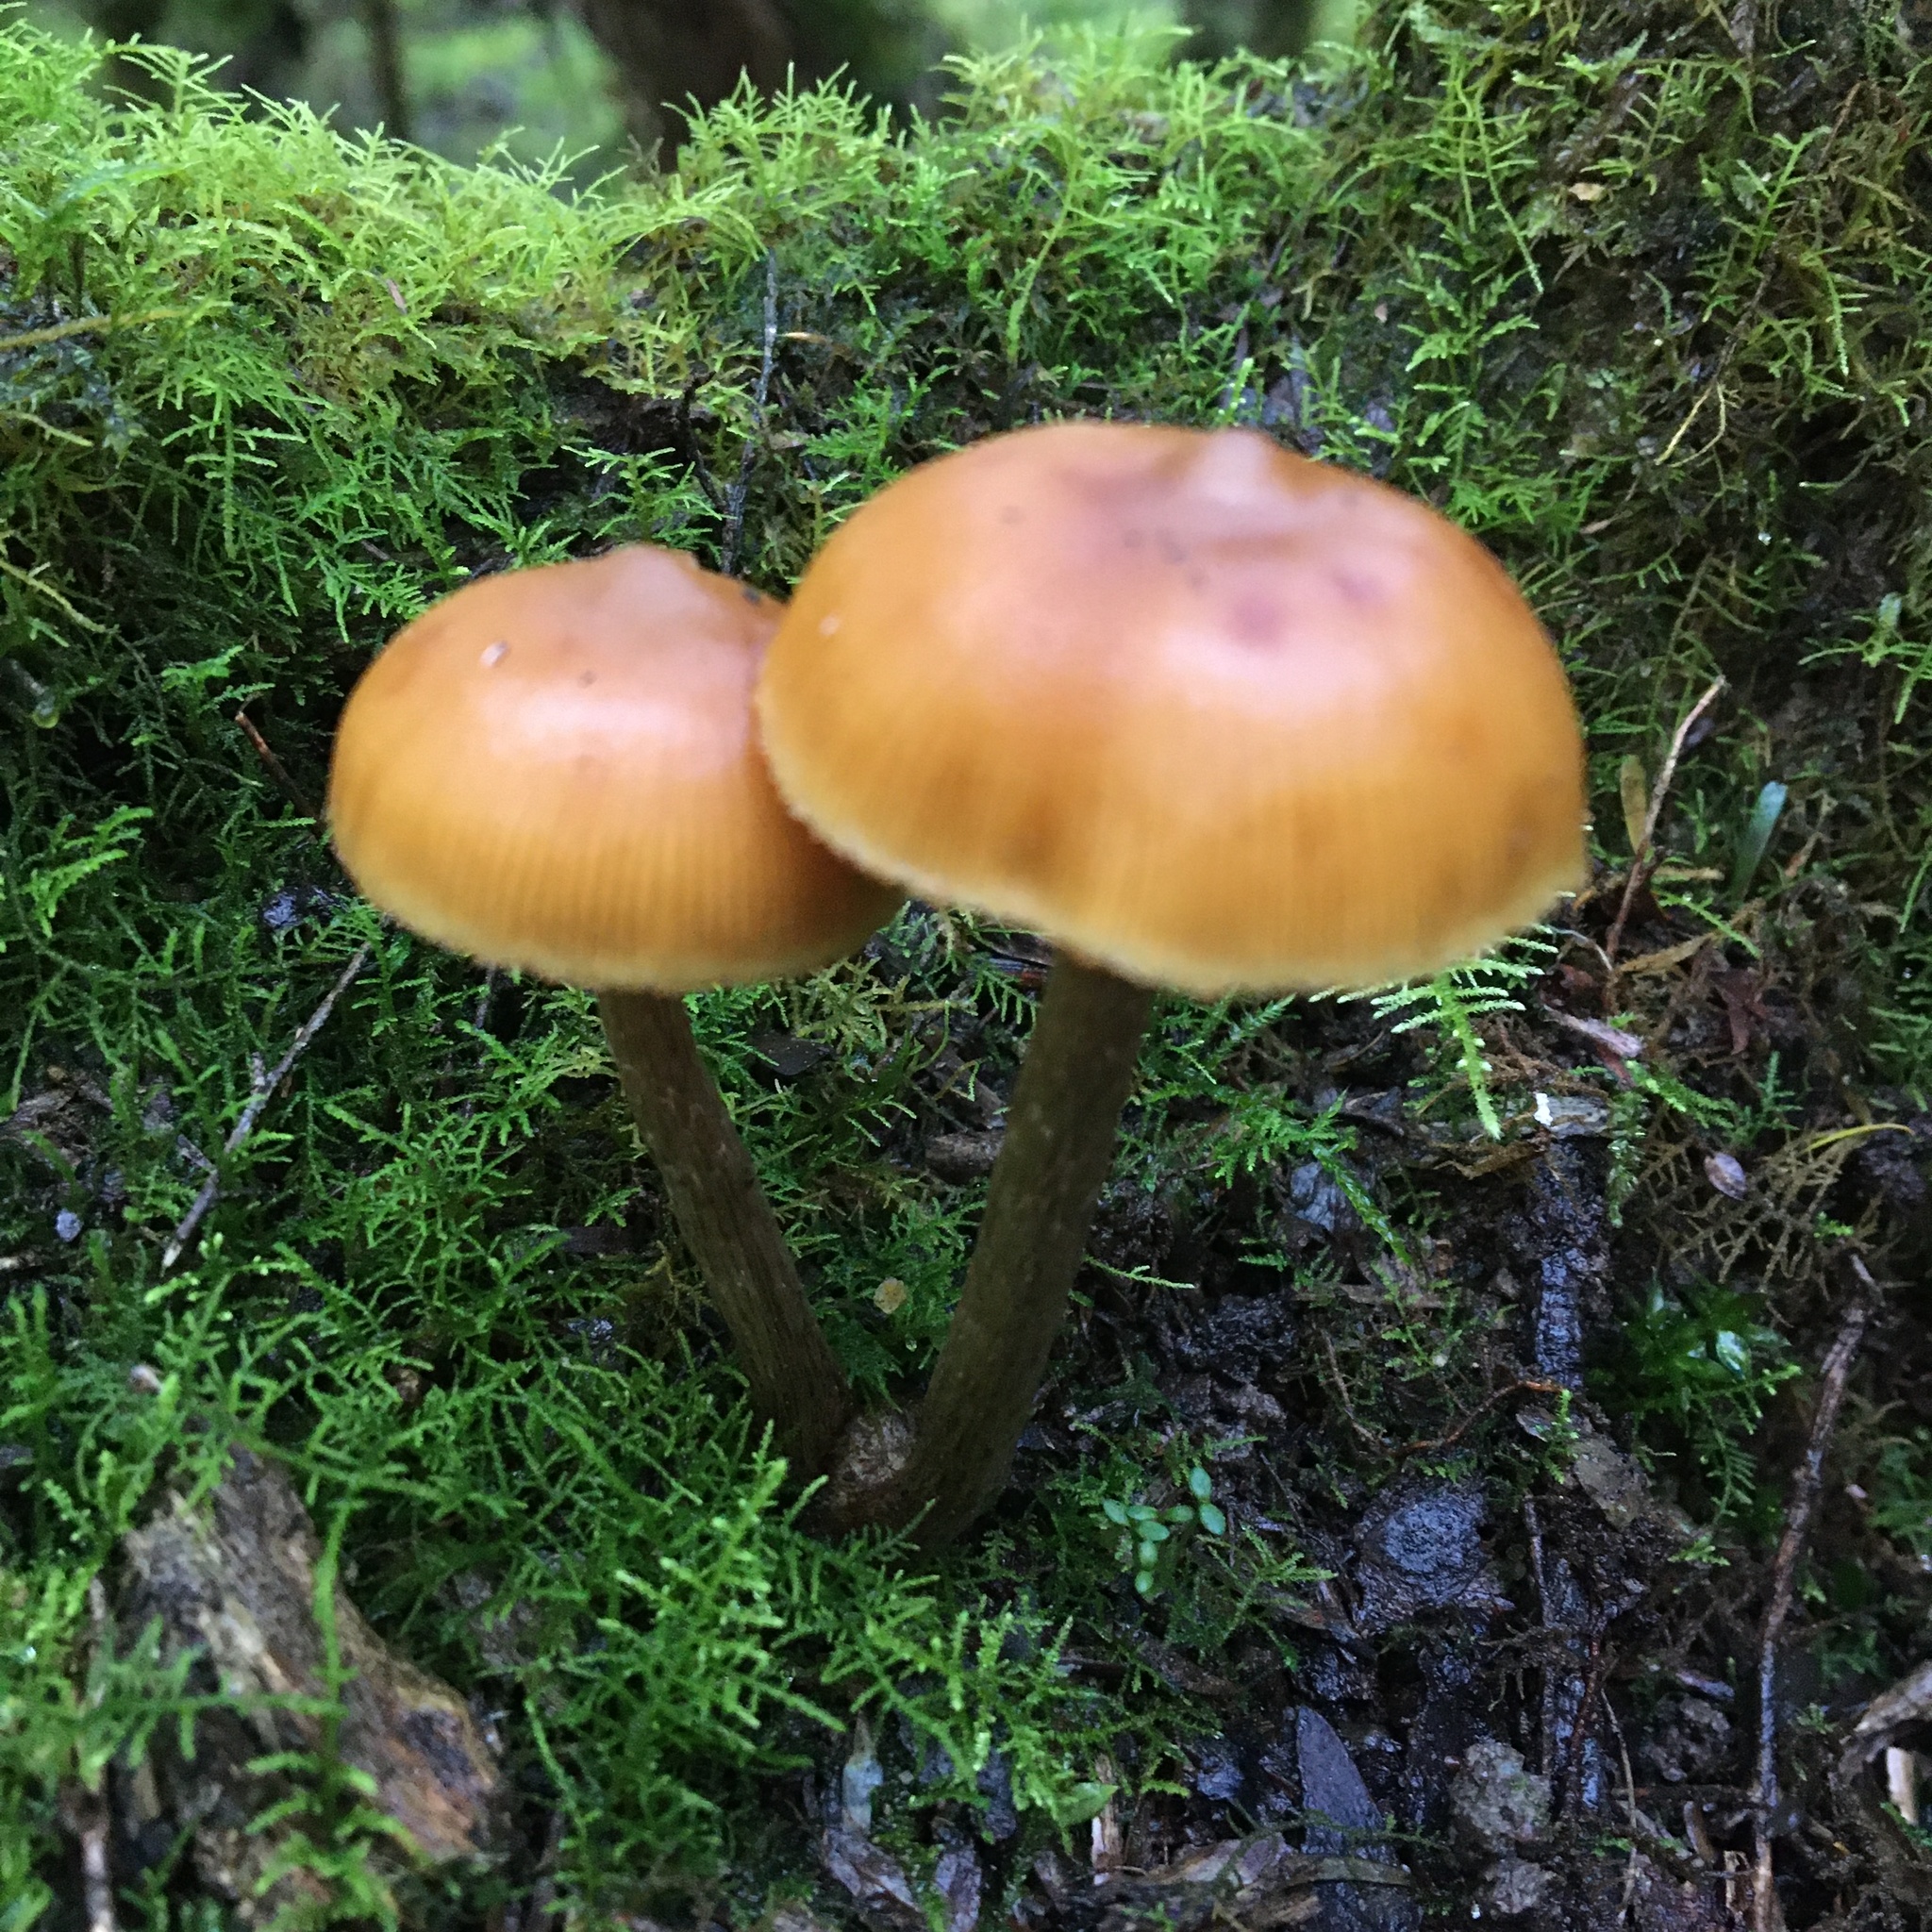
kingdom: Fungi
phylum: Basidiomycota
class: Agaricomycetes
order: Agaricales
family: Hymenogastraceae
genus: Galerina
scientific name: Galerina patagonica
